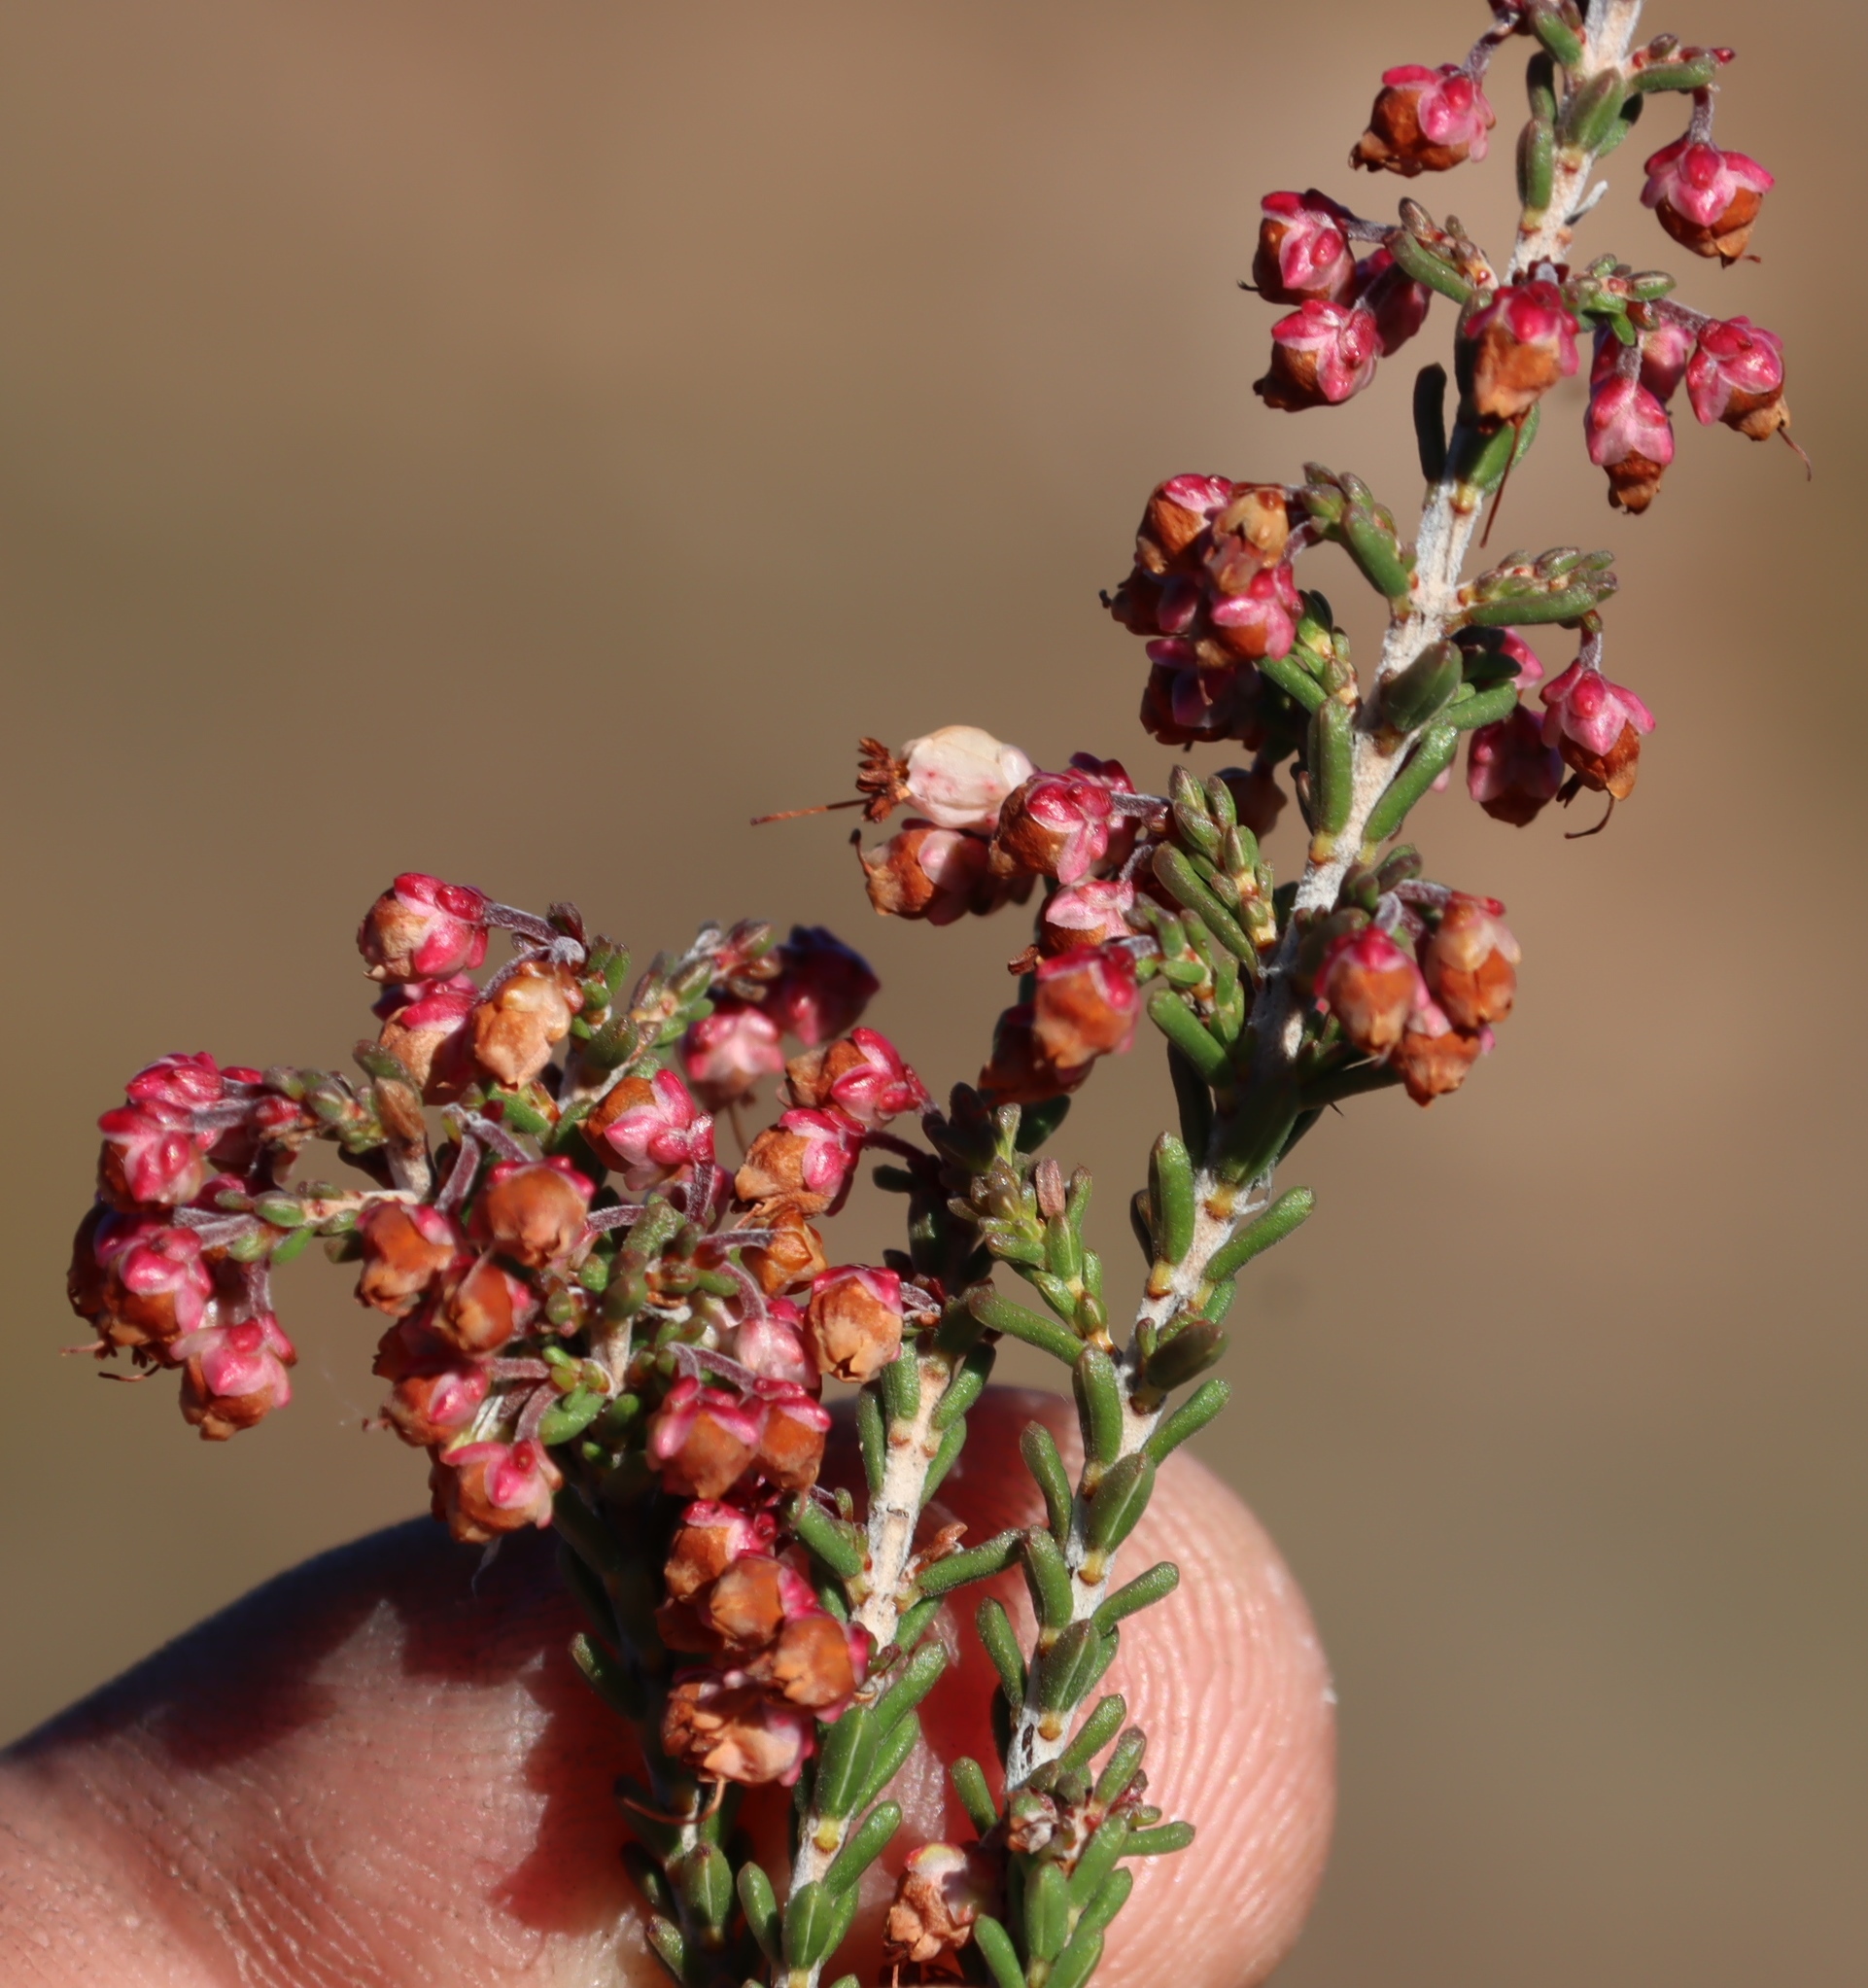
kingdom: Plantae
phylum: Tracheophyta
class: Magnoliopsida
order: Ericales
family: Ericaceae
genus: Erica
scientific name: Erica umbelliflora
